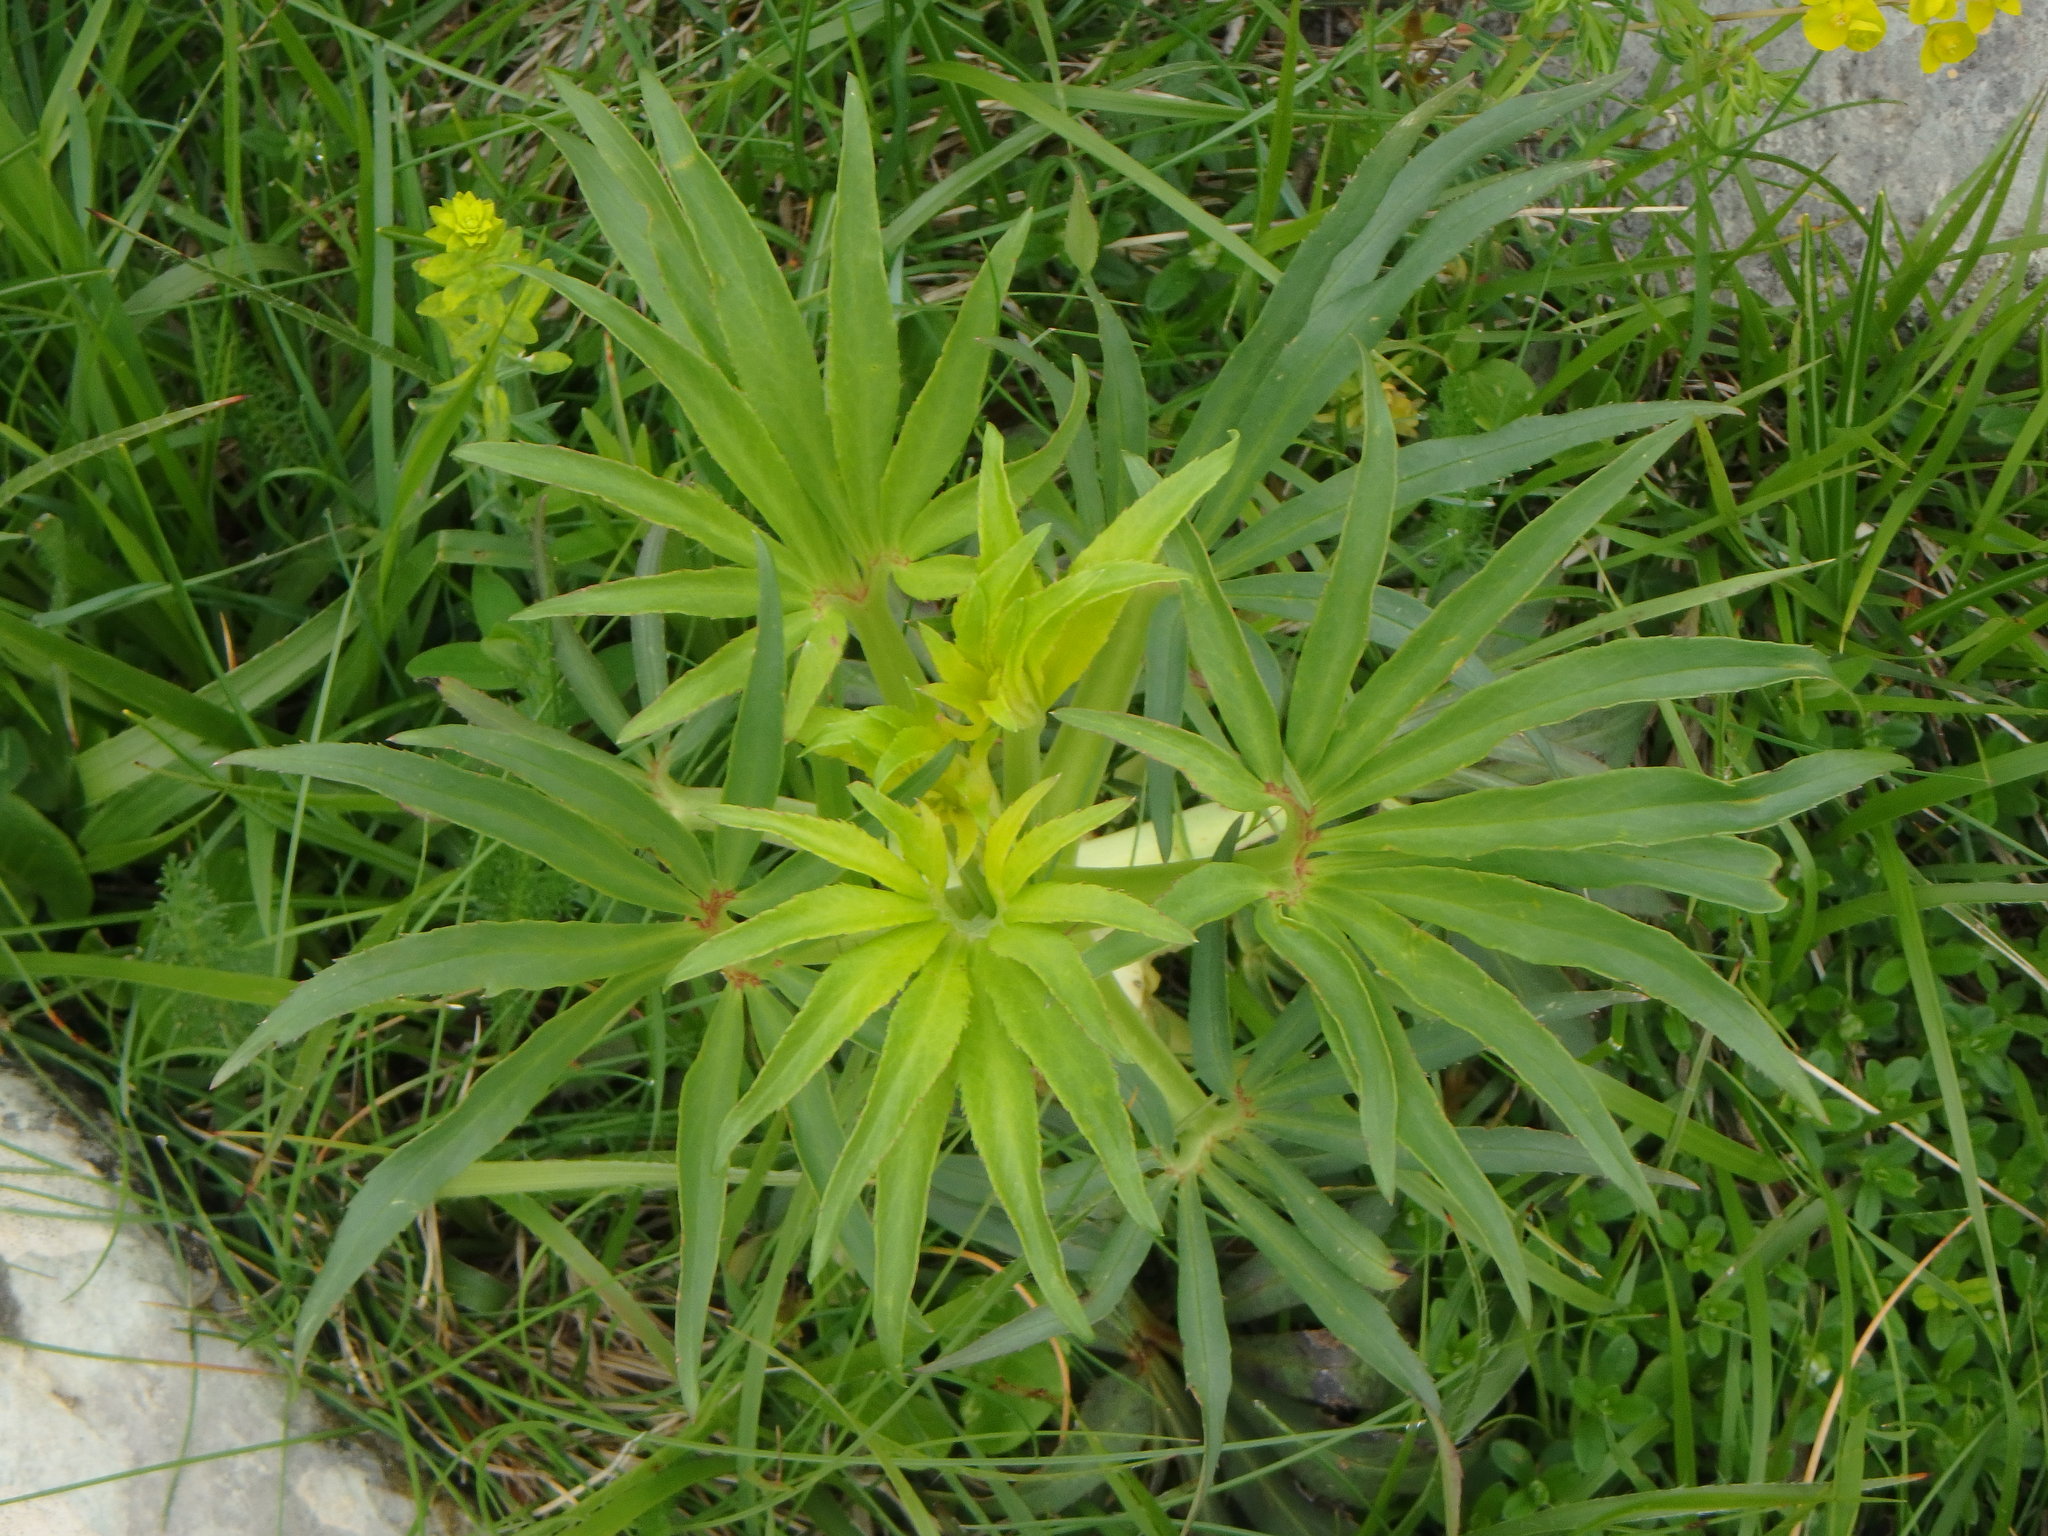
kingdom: Plantae
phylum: Tracheophyta
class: Magnoliopsida
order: Ranunculales
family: Ranunculaceae
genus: Helleborus
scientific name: Helleborus foetidus
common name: Stinking hellebore
